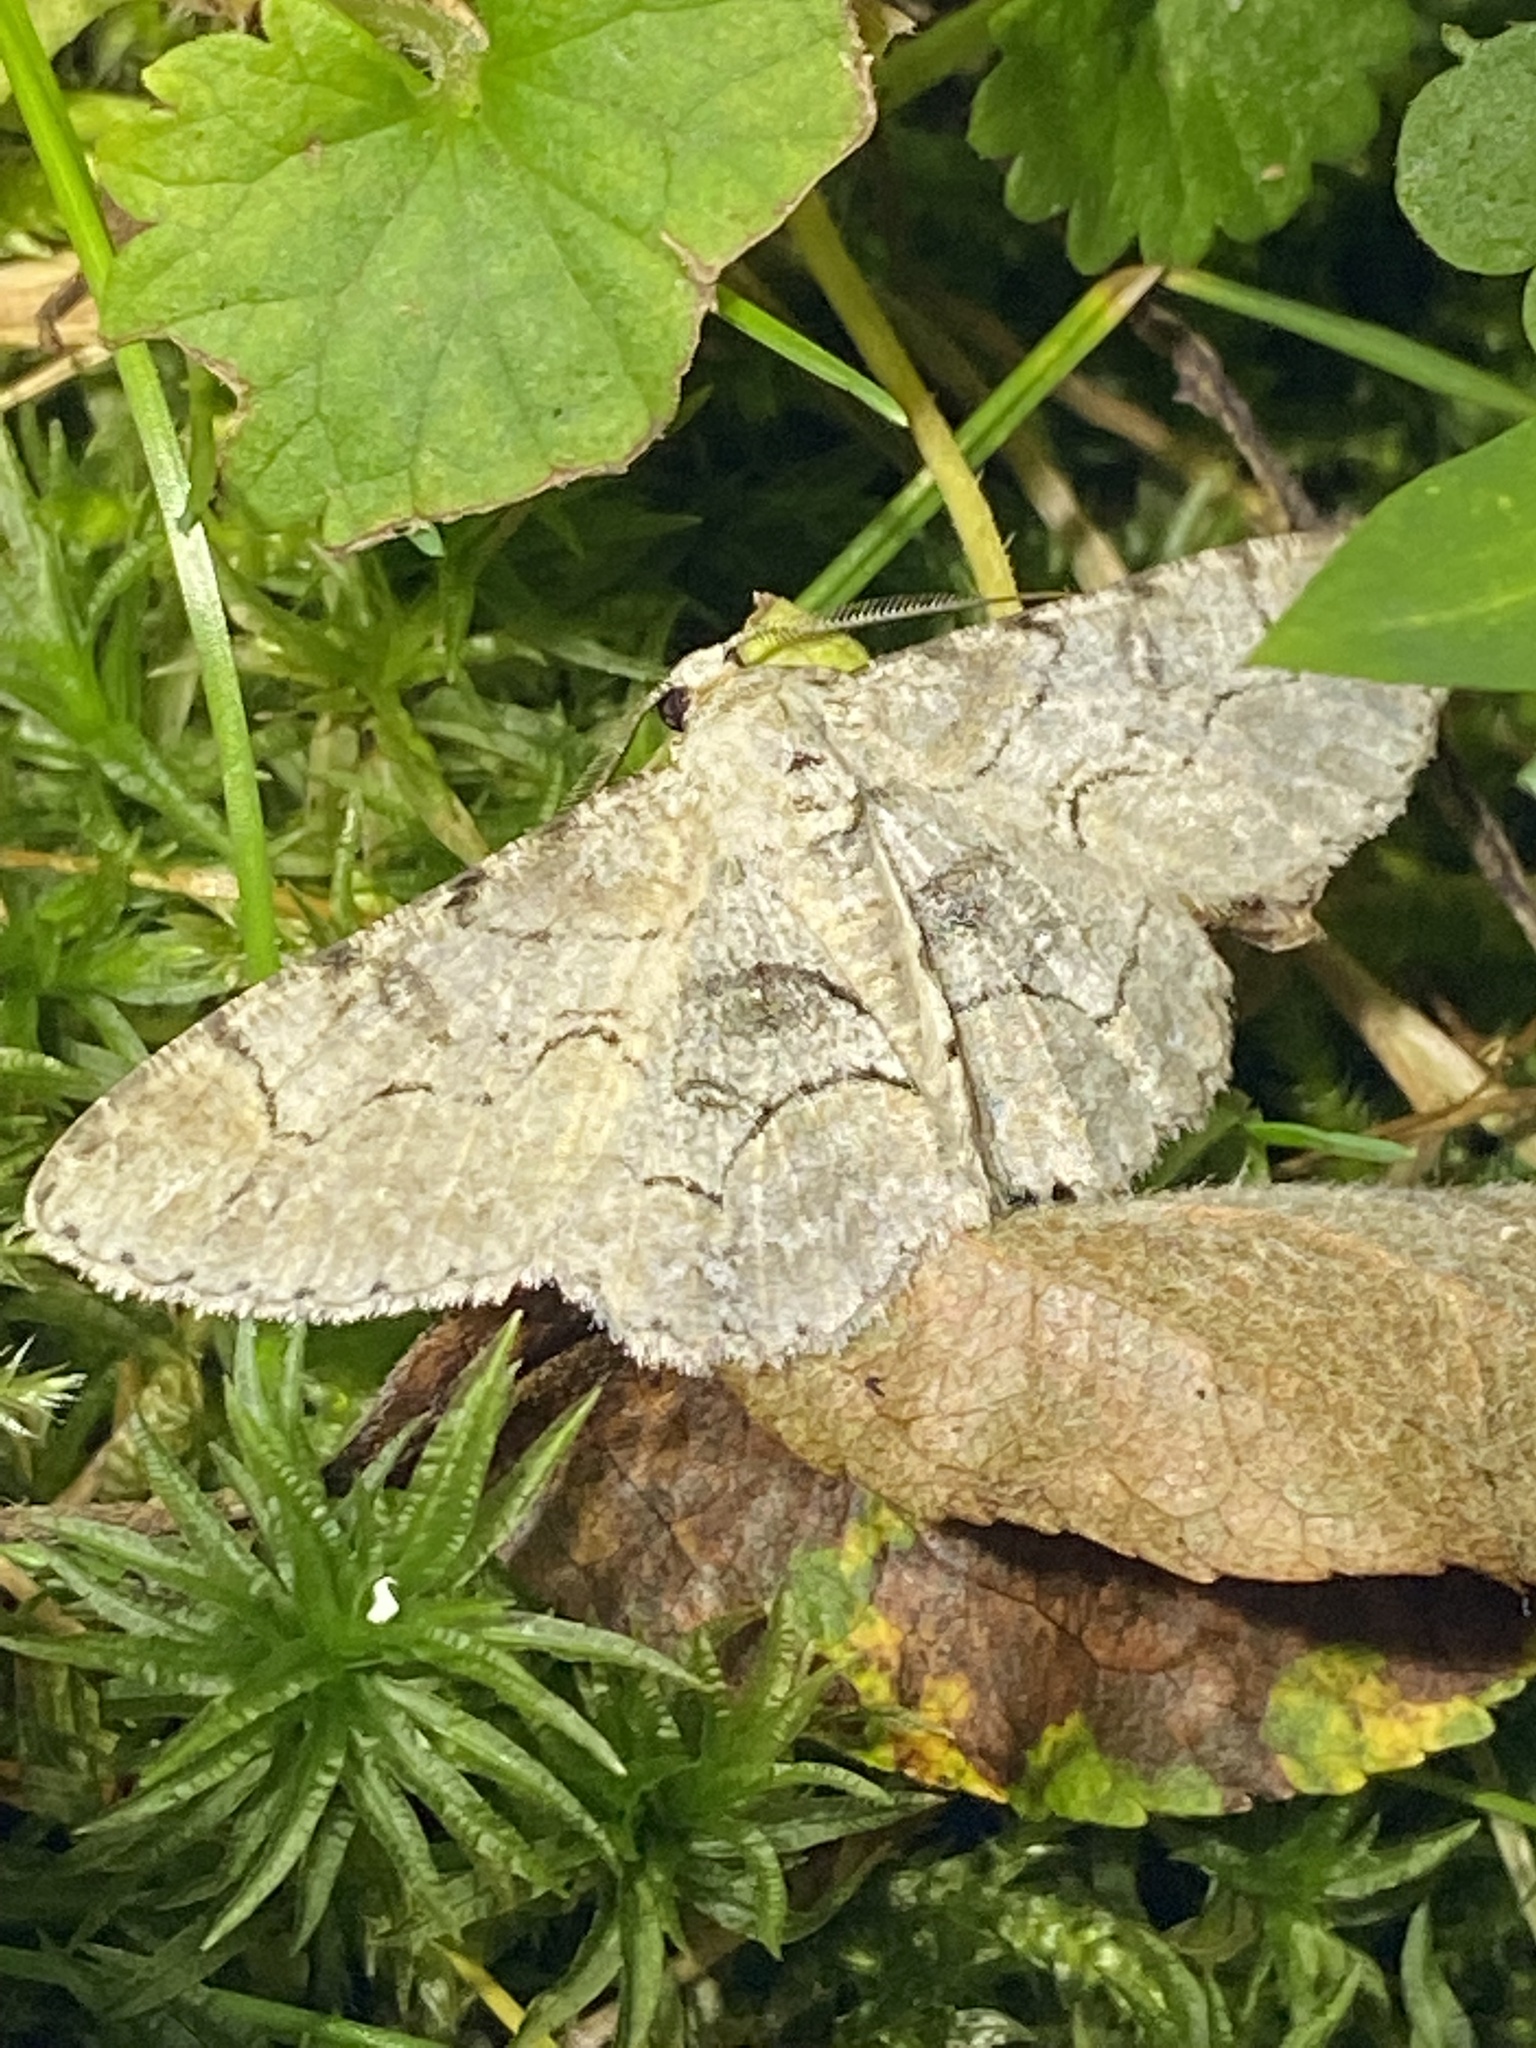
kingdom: Animalia
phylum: Arthropoda
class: Insecta
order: Lepidoptera
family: Geometridae
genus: Iridopsis
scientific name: Iridopsis larvaria
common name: Bent-line gray
